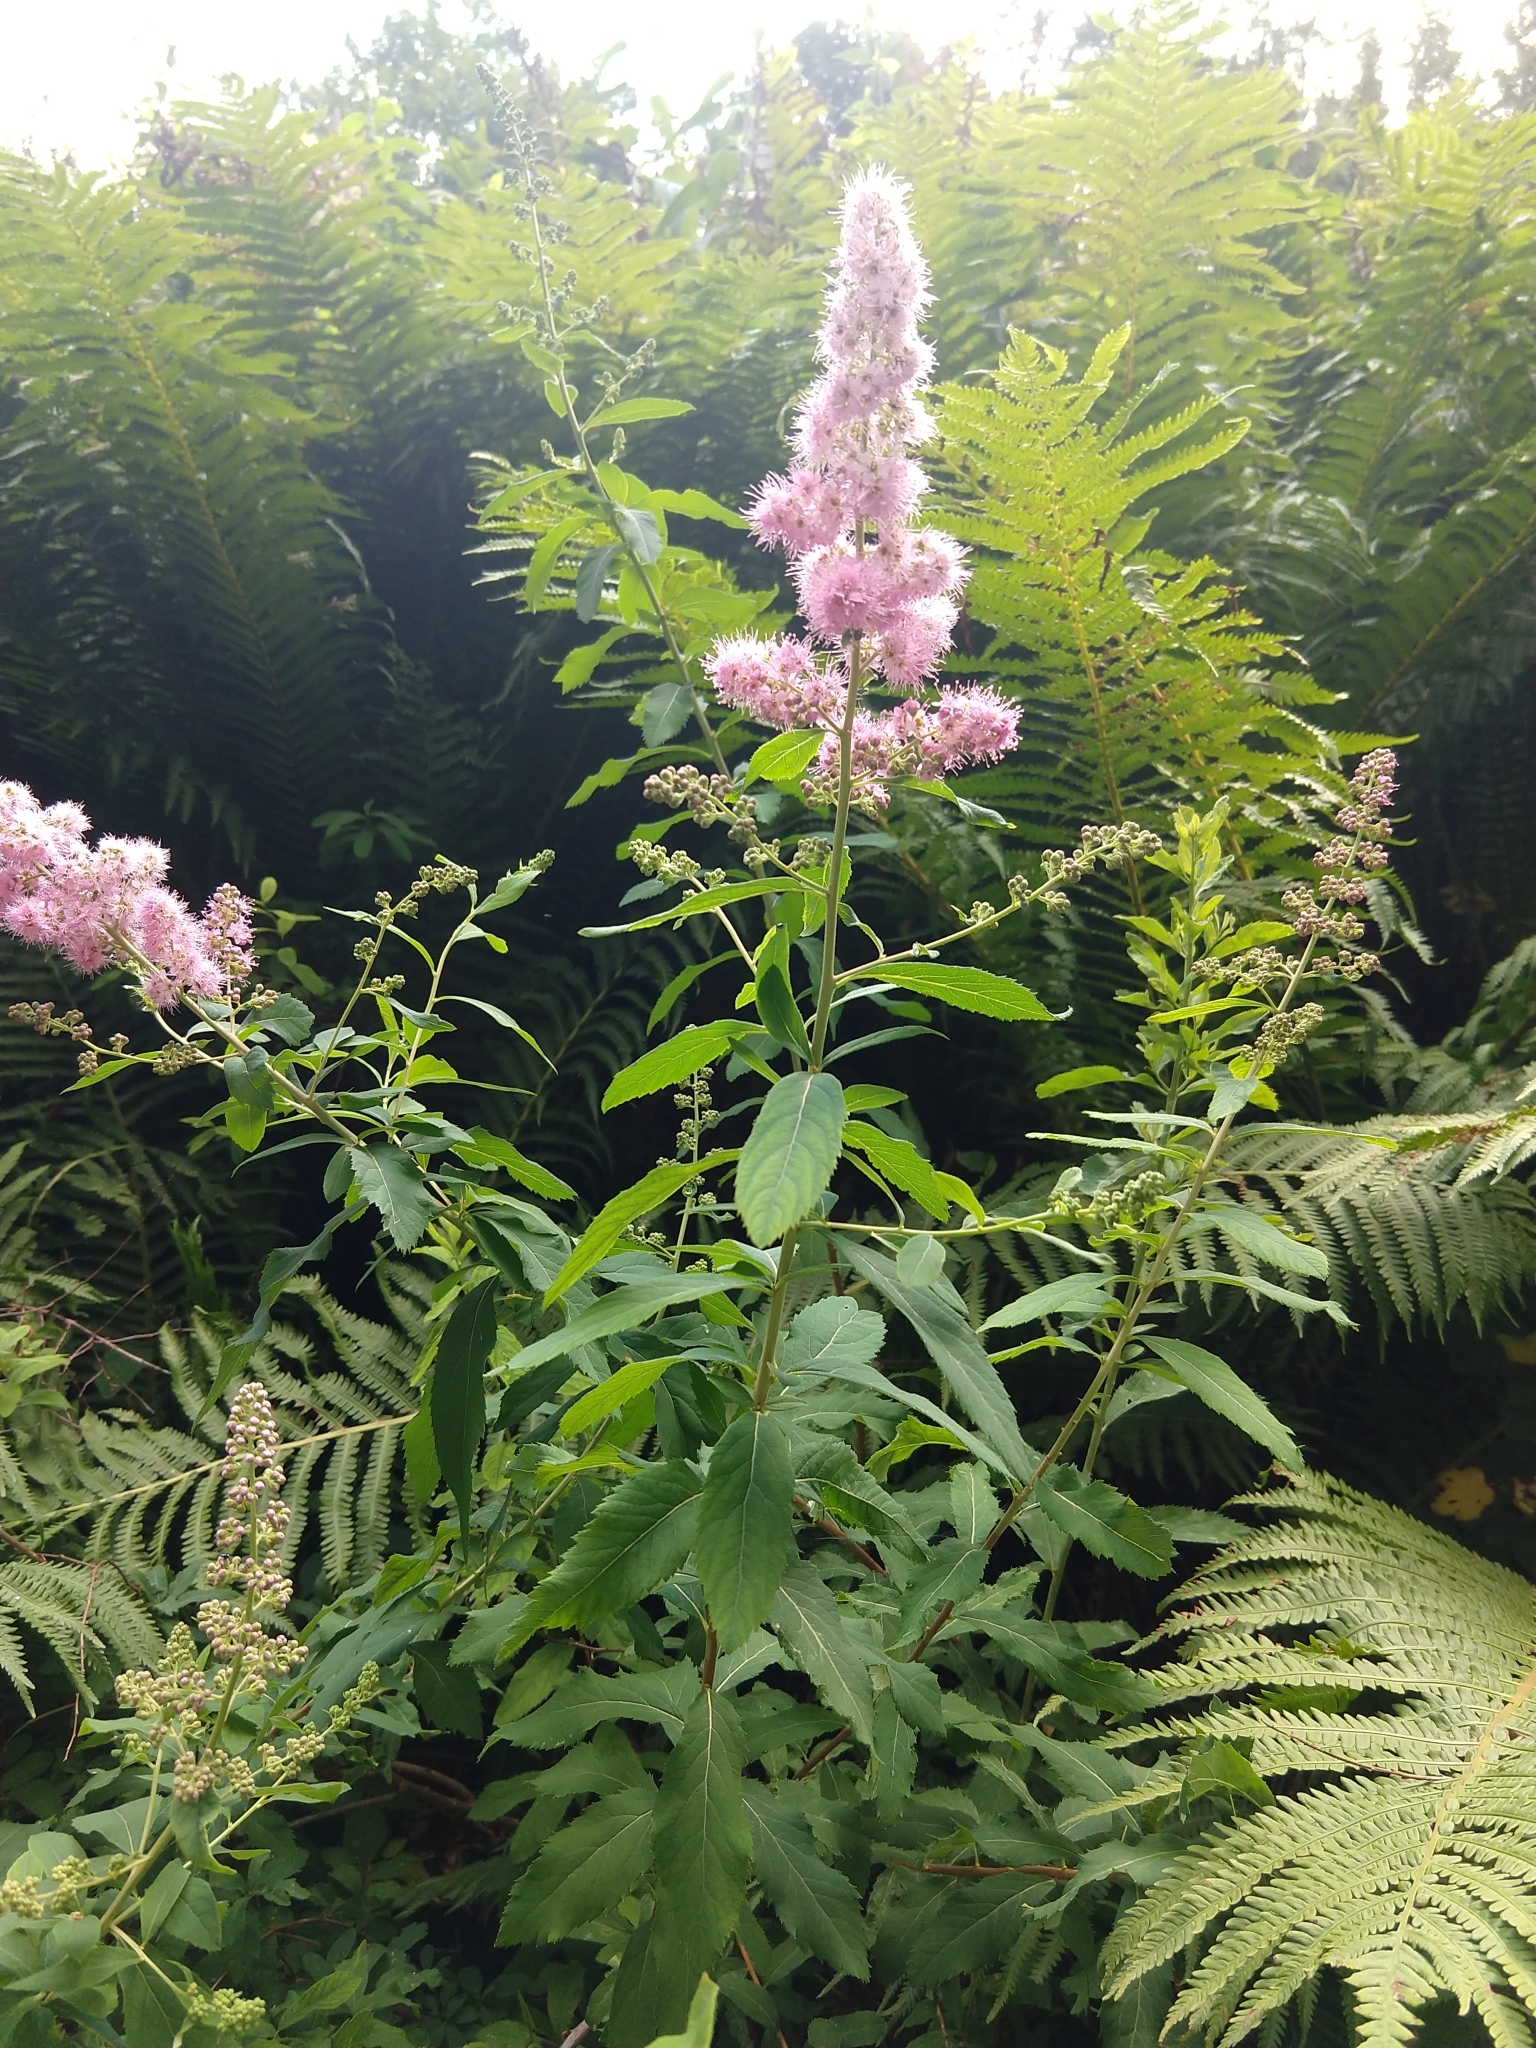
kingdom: Plantae
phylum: Tracheophyta
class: Magnoliopsida
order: Rosales
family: Rosaceae
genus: Spiraea
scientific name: Spiraea douglasii
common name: Steeplebush
